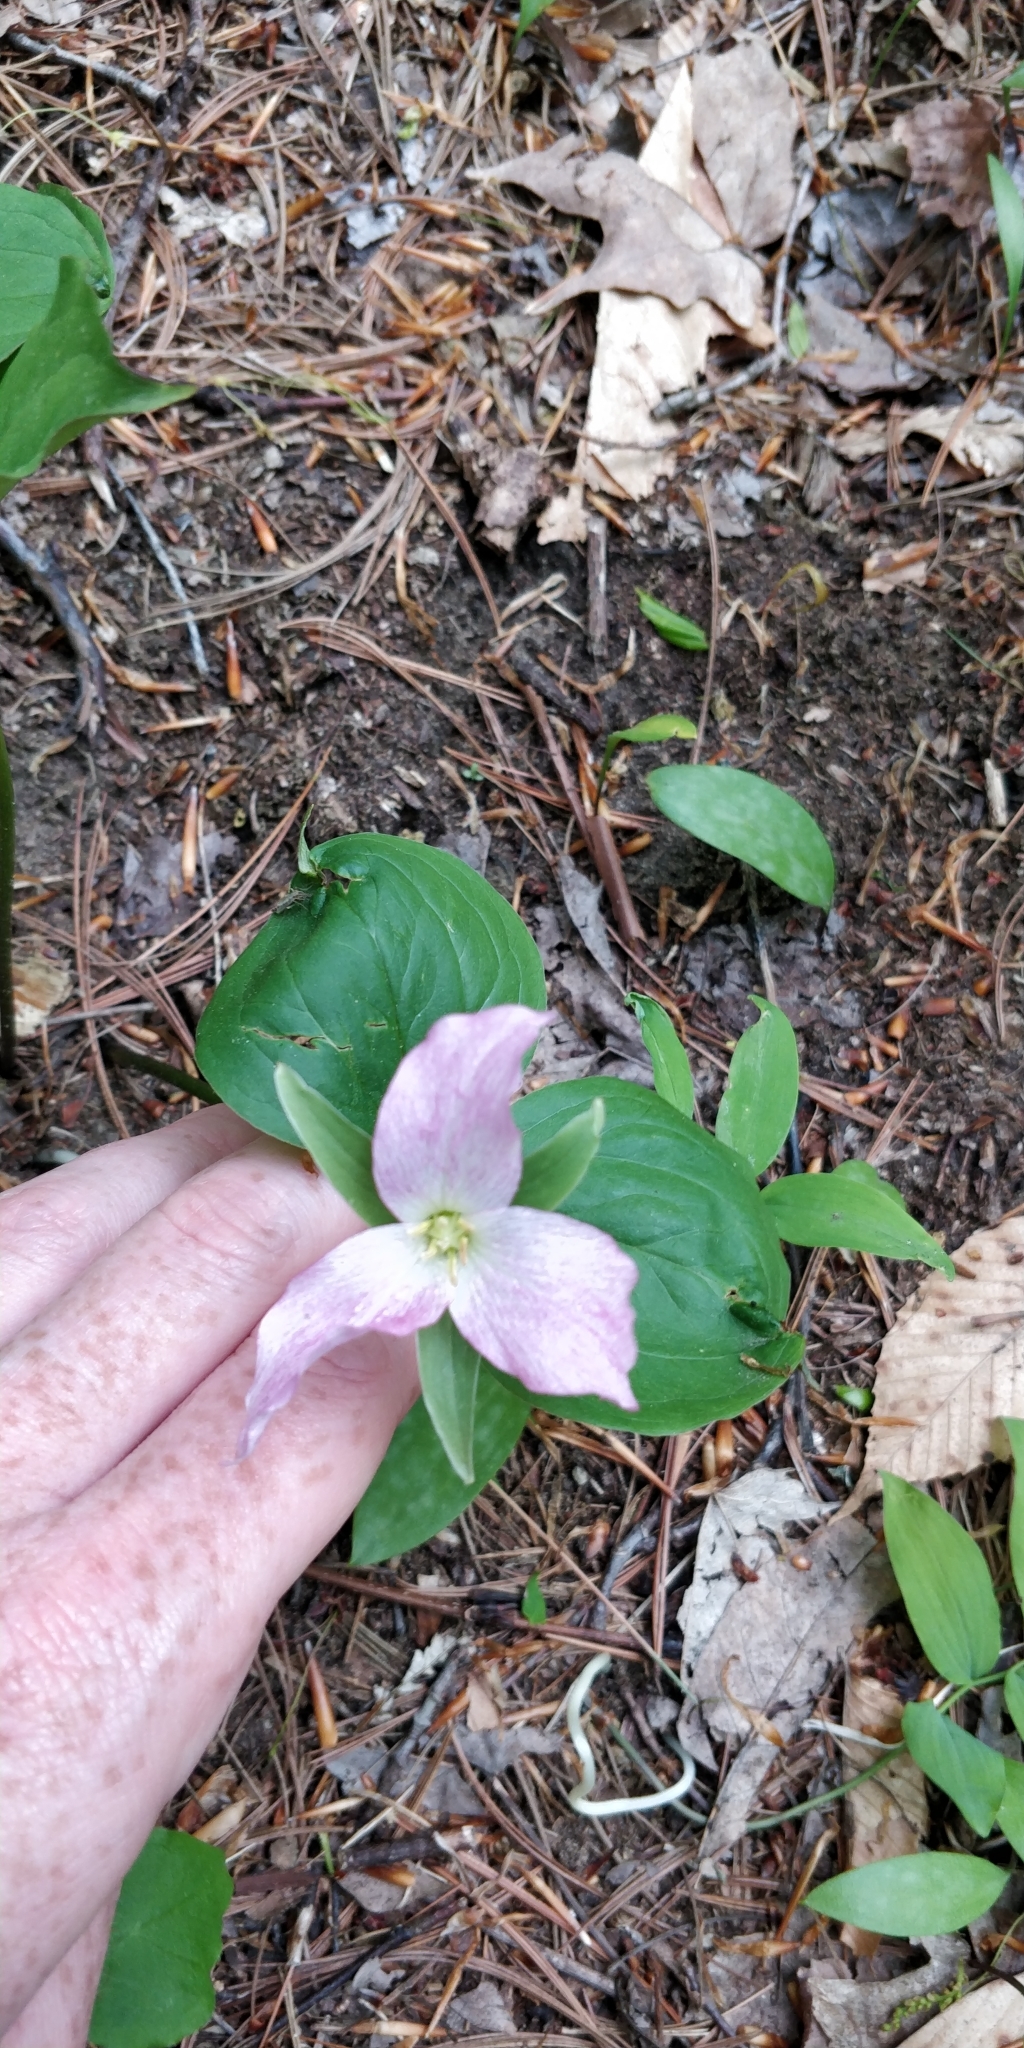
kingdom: Plantae
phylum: Tracheophyta
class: Liliopsida
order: Liliales
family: Melanthiaceae
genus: Trillium
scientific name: Trillium grandiflorum
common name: Great white trillium
